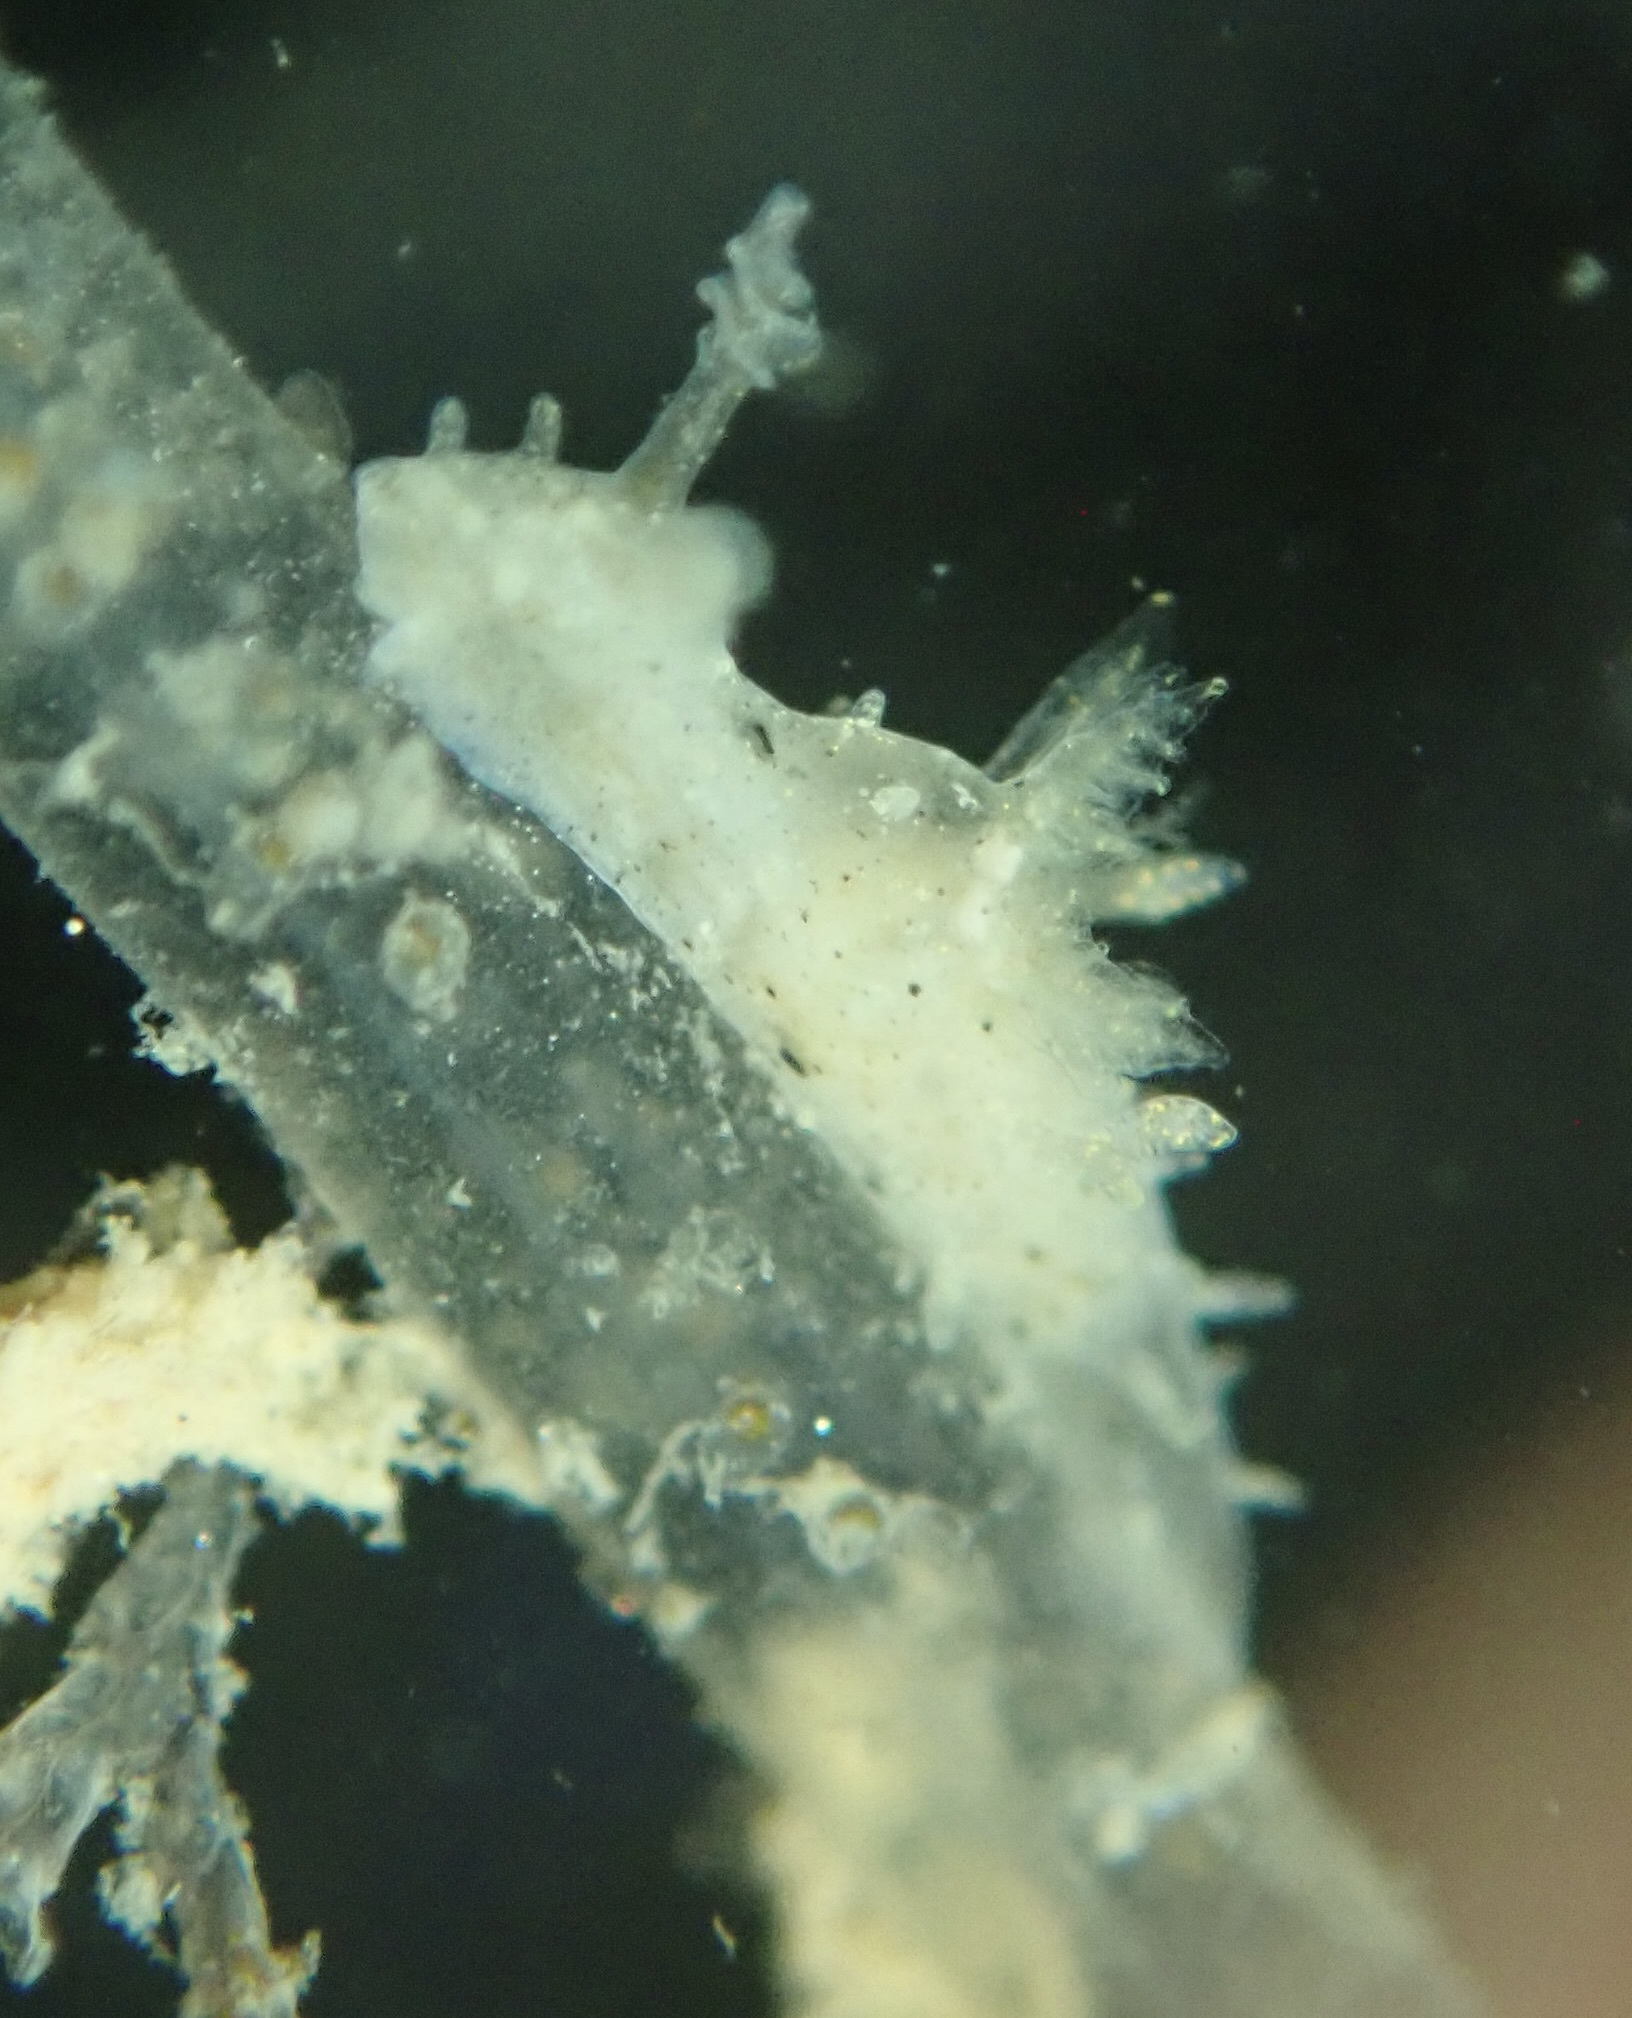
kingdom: Animalia
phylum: Mollusca
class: Gastropoda
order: Nudibranchia
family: Polyceridae
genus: Polycerella
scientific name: Polycerella glandulosa
